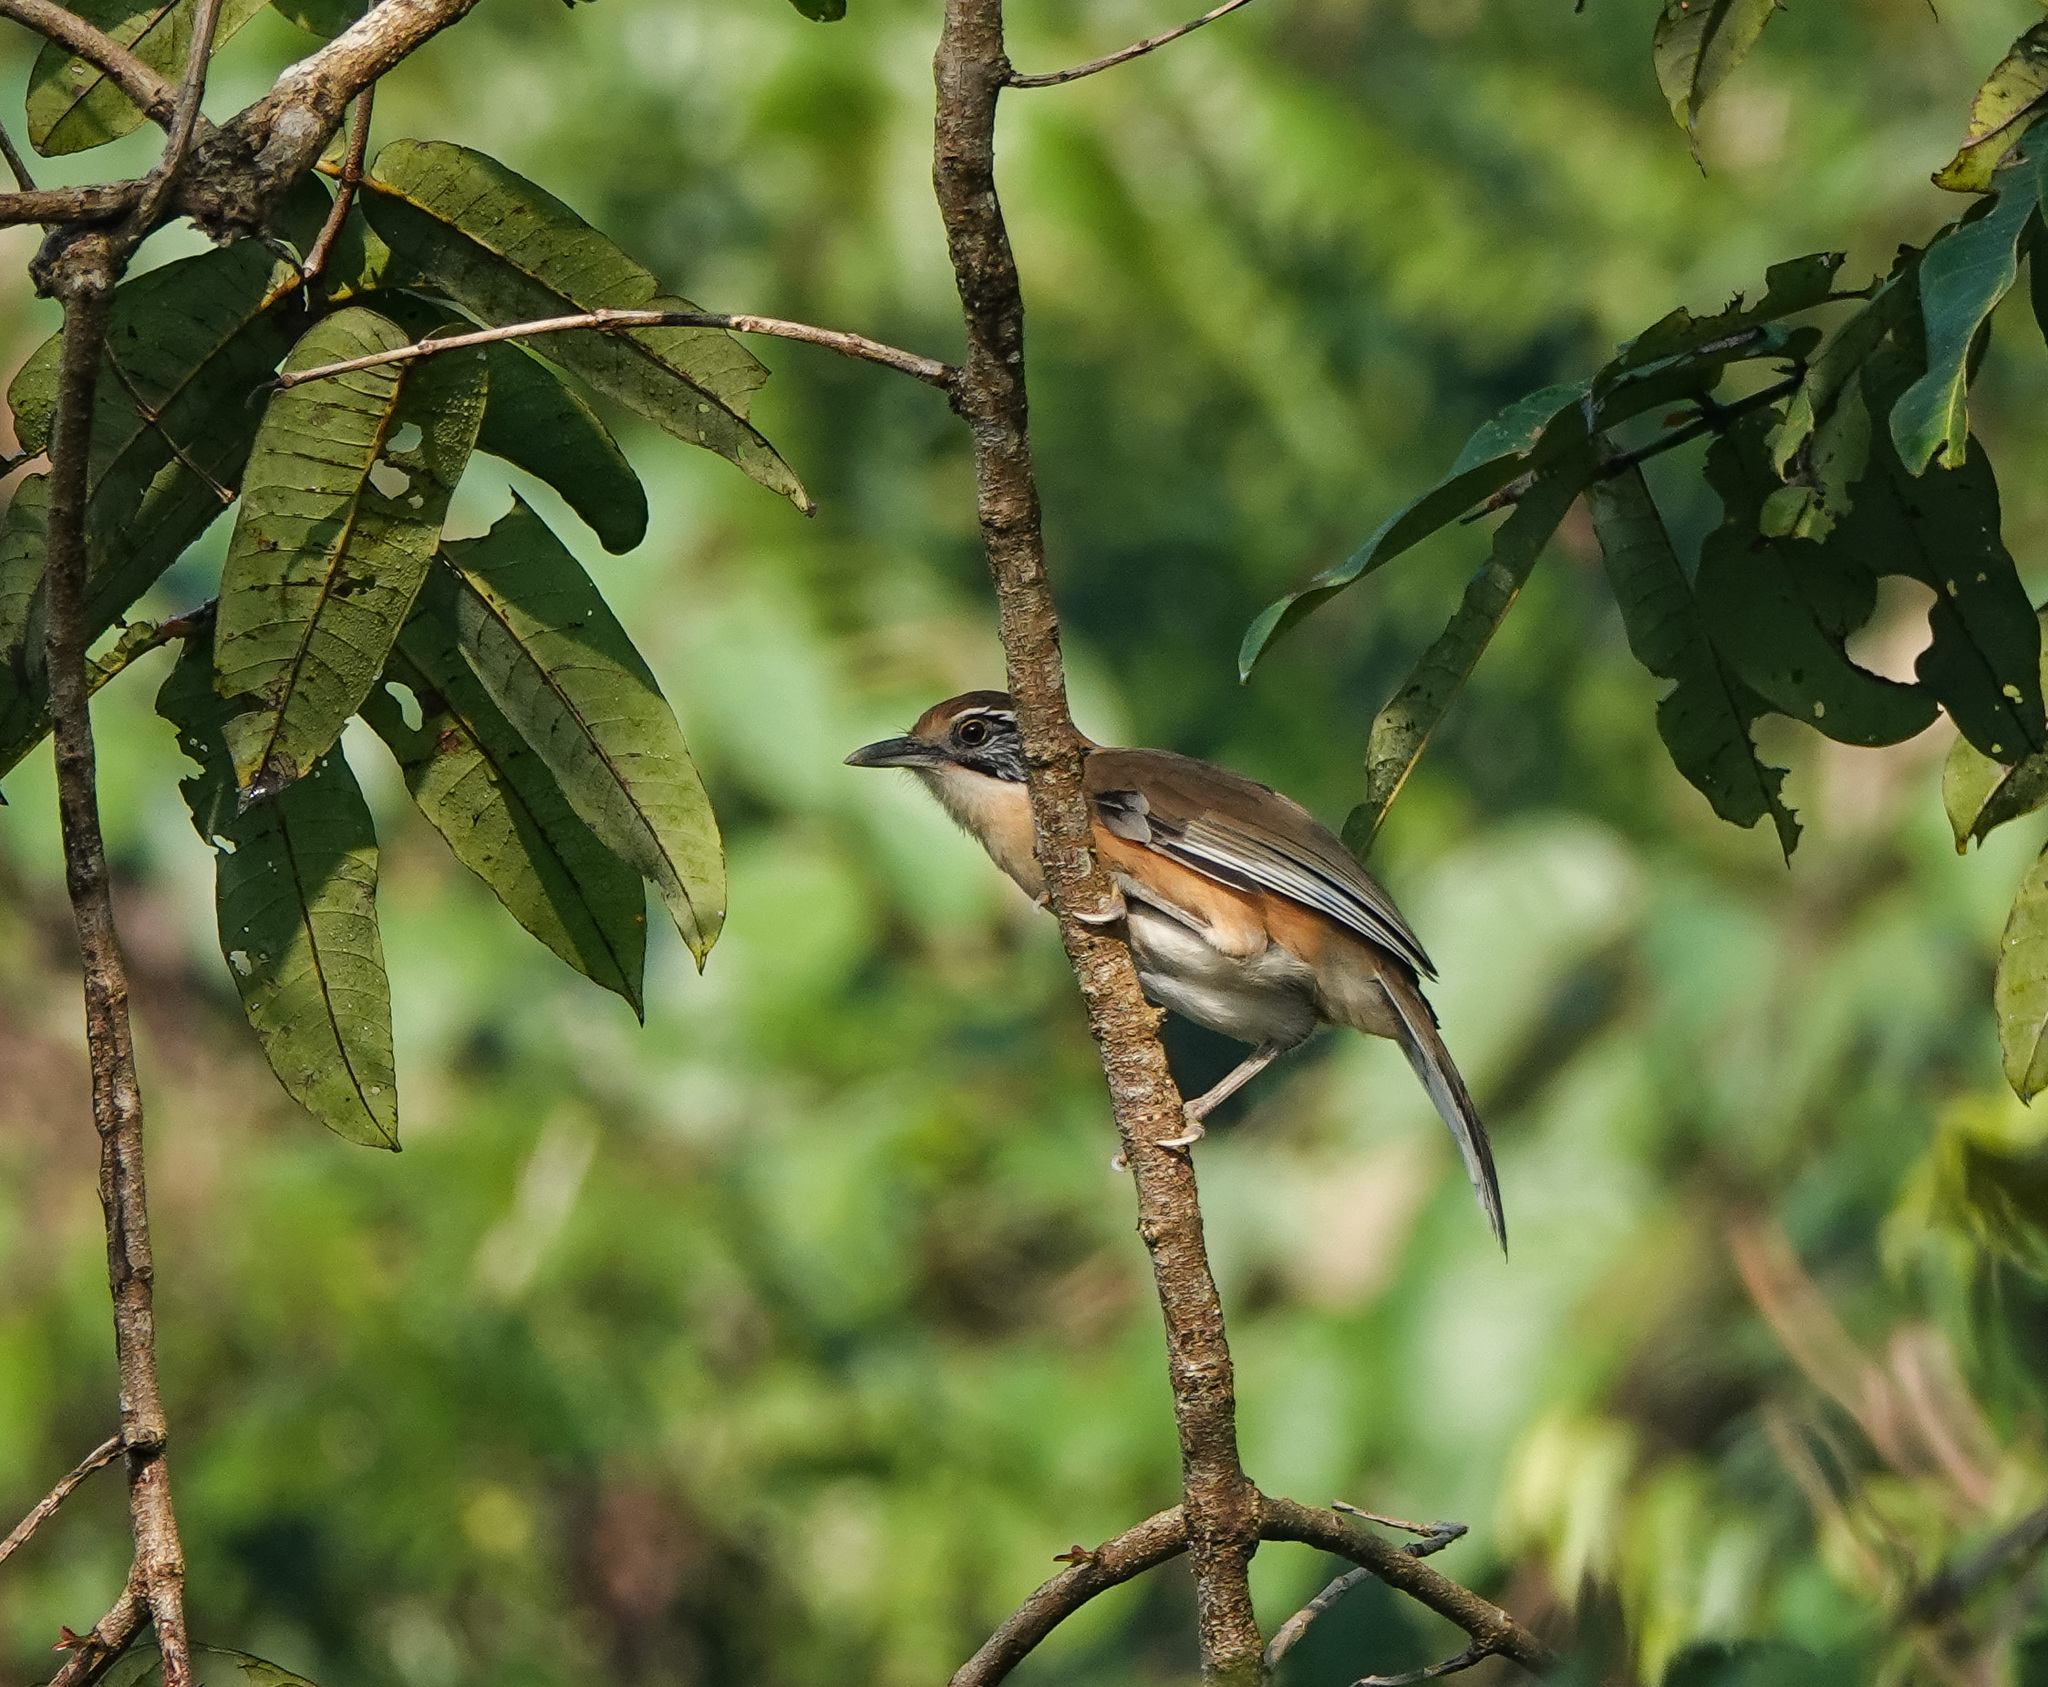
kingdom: Animalia
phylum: Chordata
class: Aves
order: Passeriformes
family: Leiothrichidae
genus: Garrulax
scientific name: Garrulax pectoralis
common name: Greater necklaced laughingthrush
